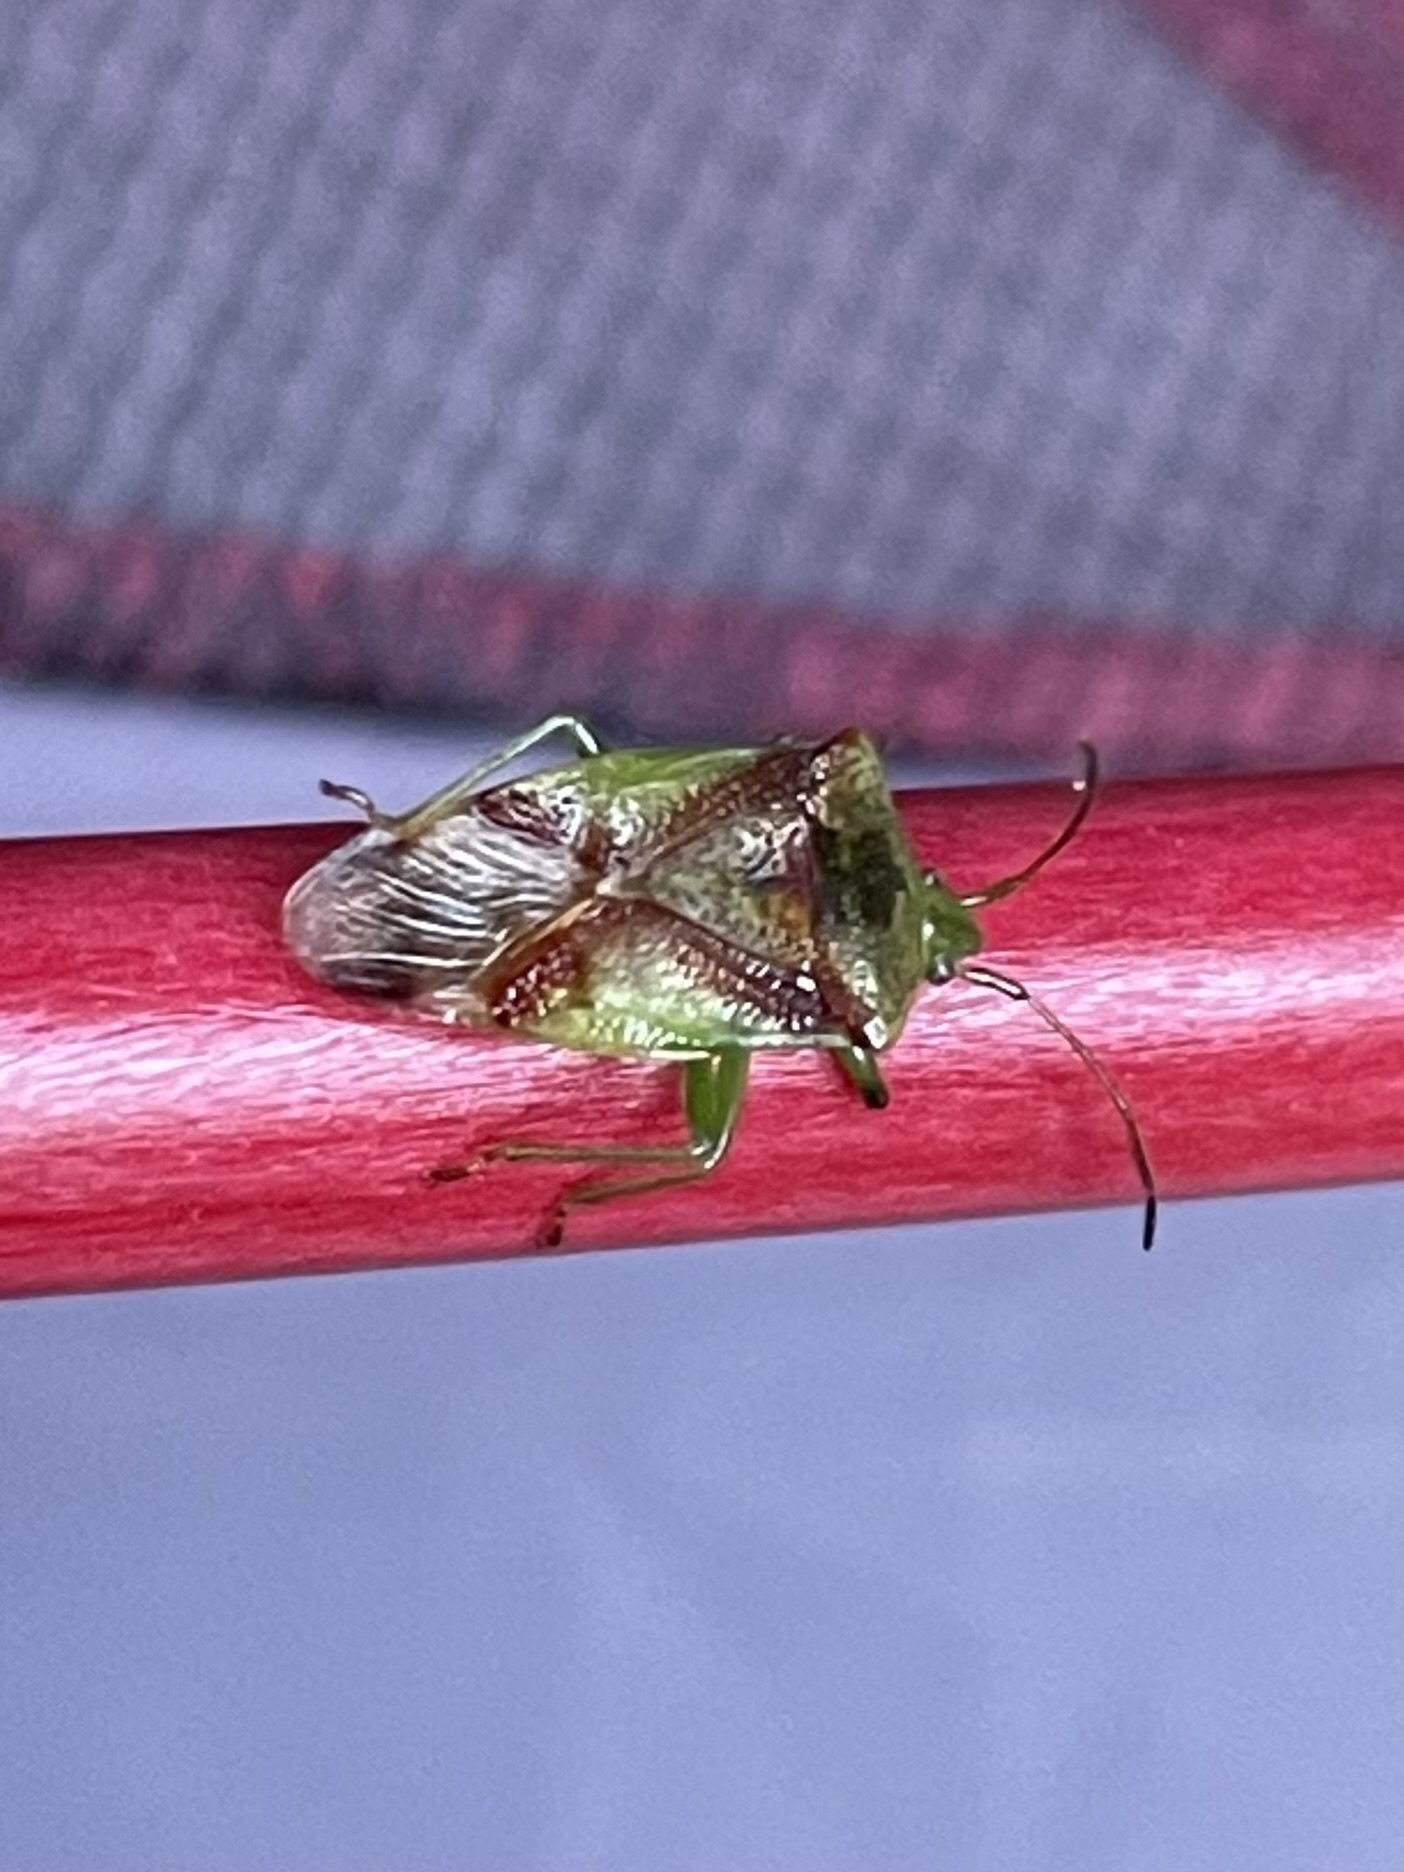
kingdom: Animalia
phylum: Arthropoda
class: Insecta
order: Hemiptera
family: Acanthosomatidae
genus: Elasmostethus
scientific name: Elasmostethus cruciatus
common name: Red-cross shield bug
